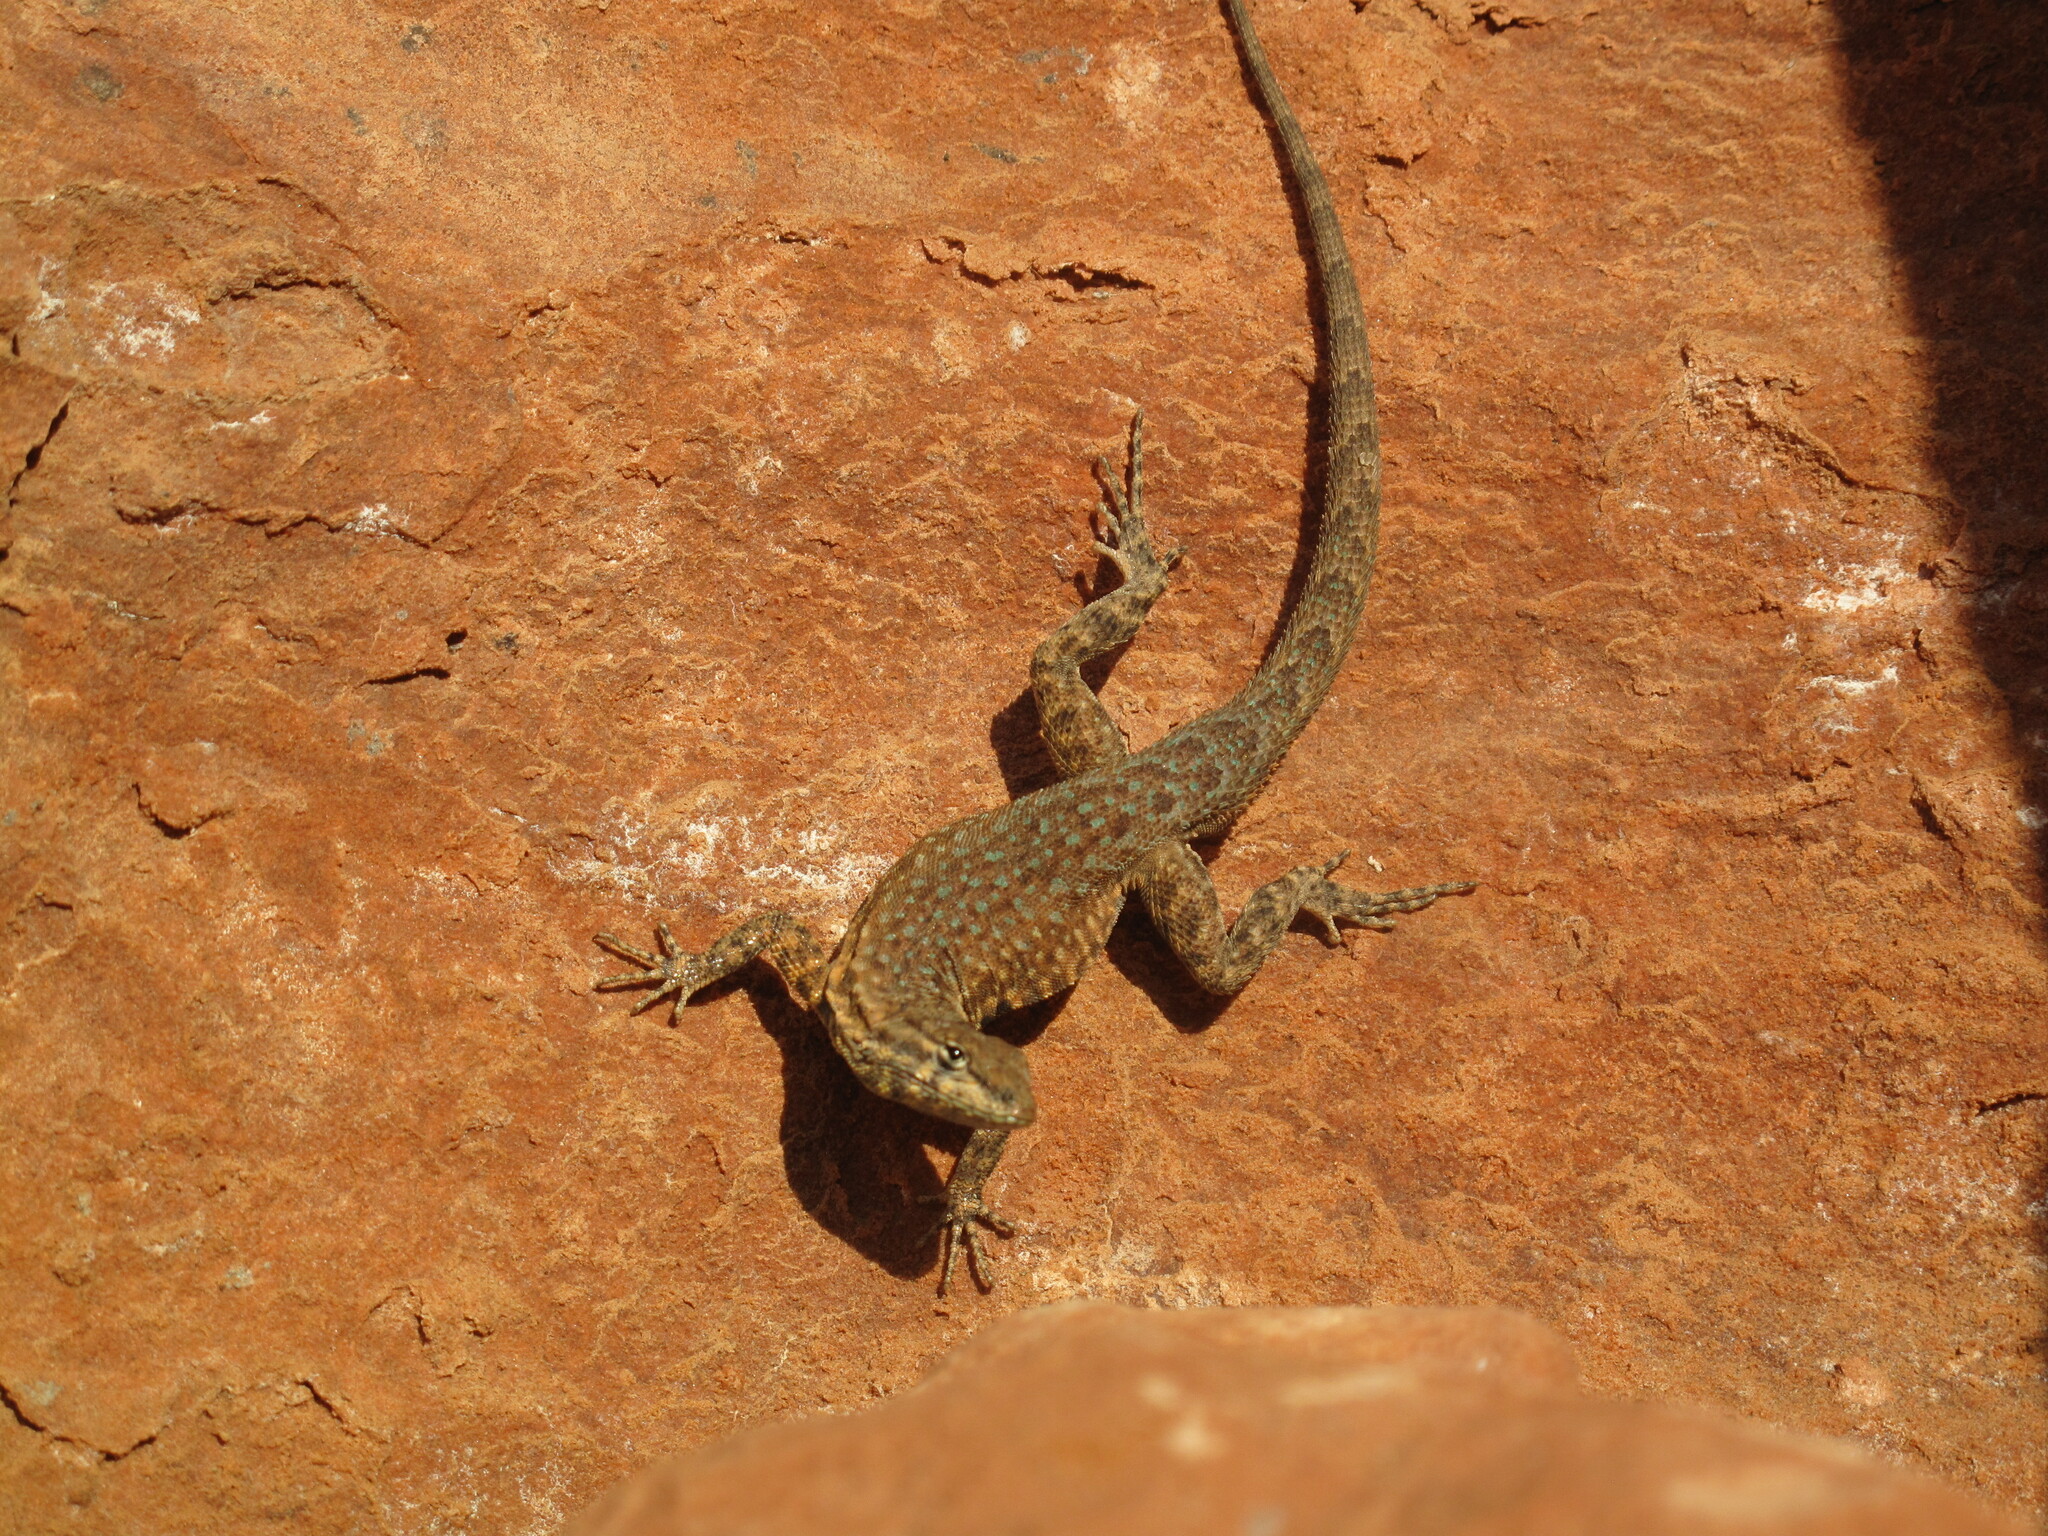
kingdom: Animalia
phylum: Chordata
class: Squamata
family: Phrynosomatidae
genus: Uta
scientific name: Uta stansburiana
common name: Side-blotched lizard
